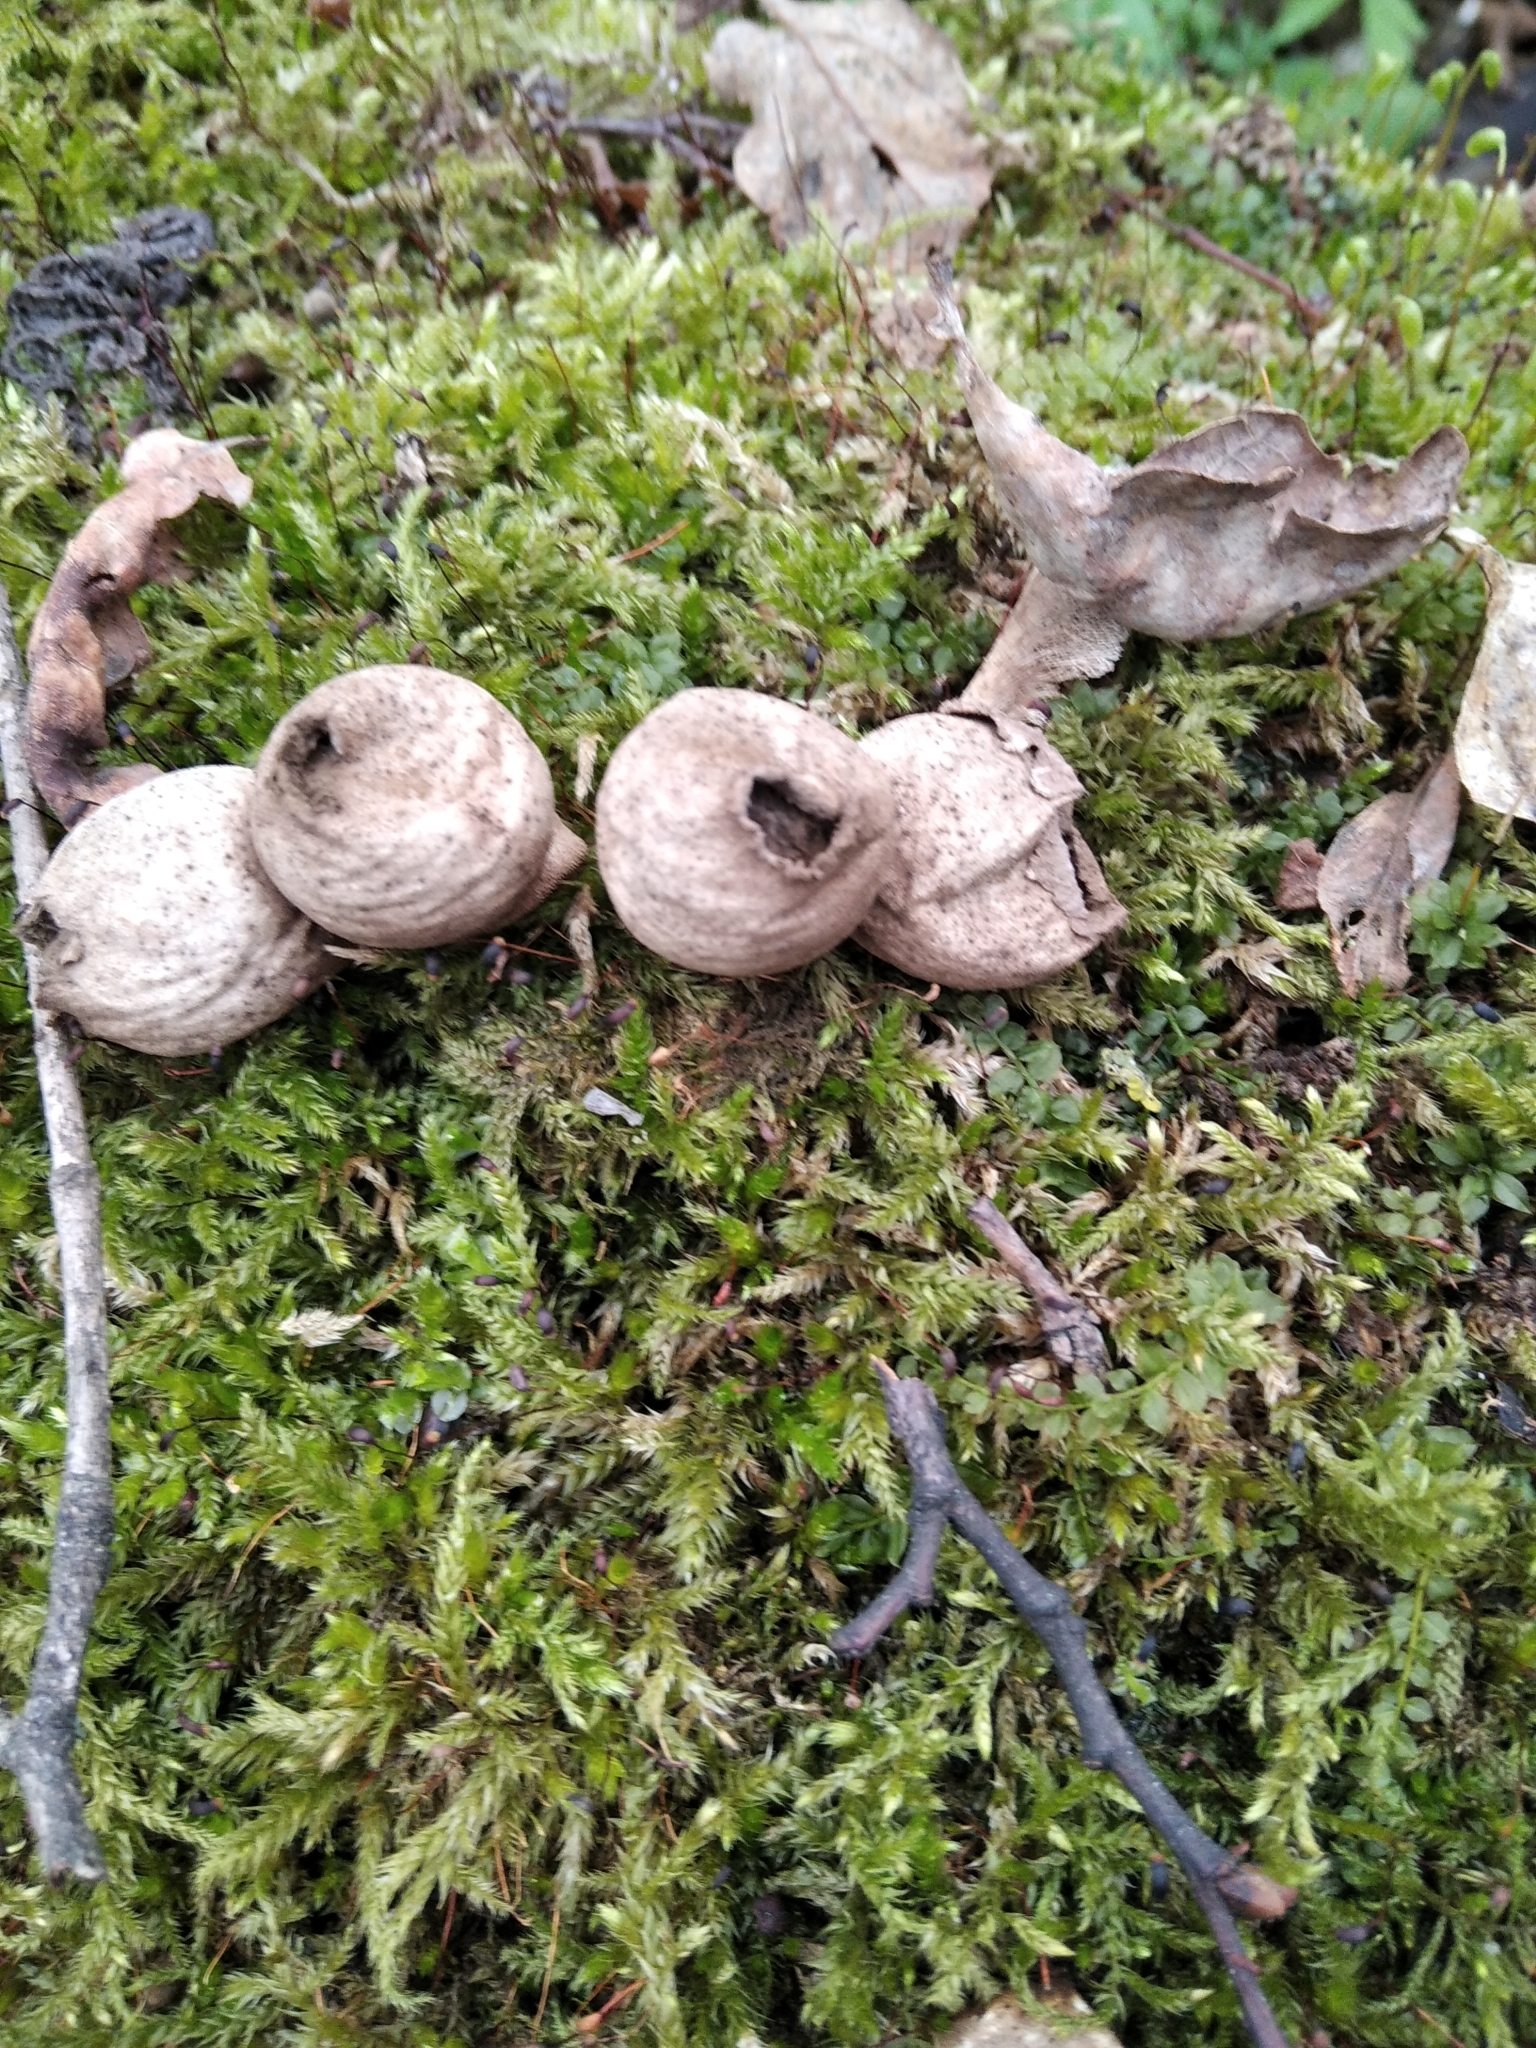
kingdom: Fungi
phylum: Basidiomycota
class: Agaricomycetes
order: Agaricales
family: Lycoperdaceae
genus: Apioperdon
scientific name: Apioperdon pyriforme
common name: Pear-shaped puffball
